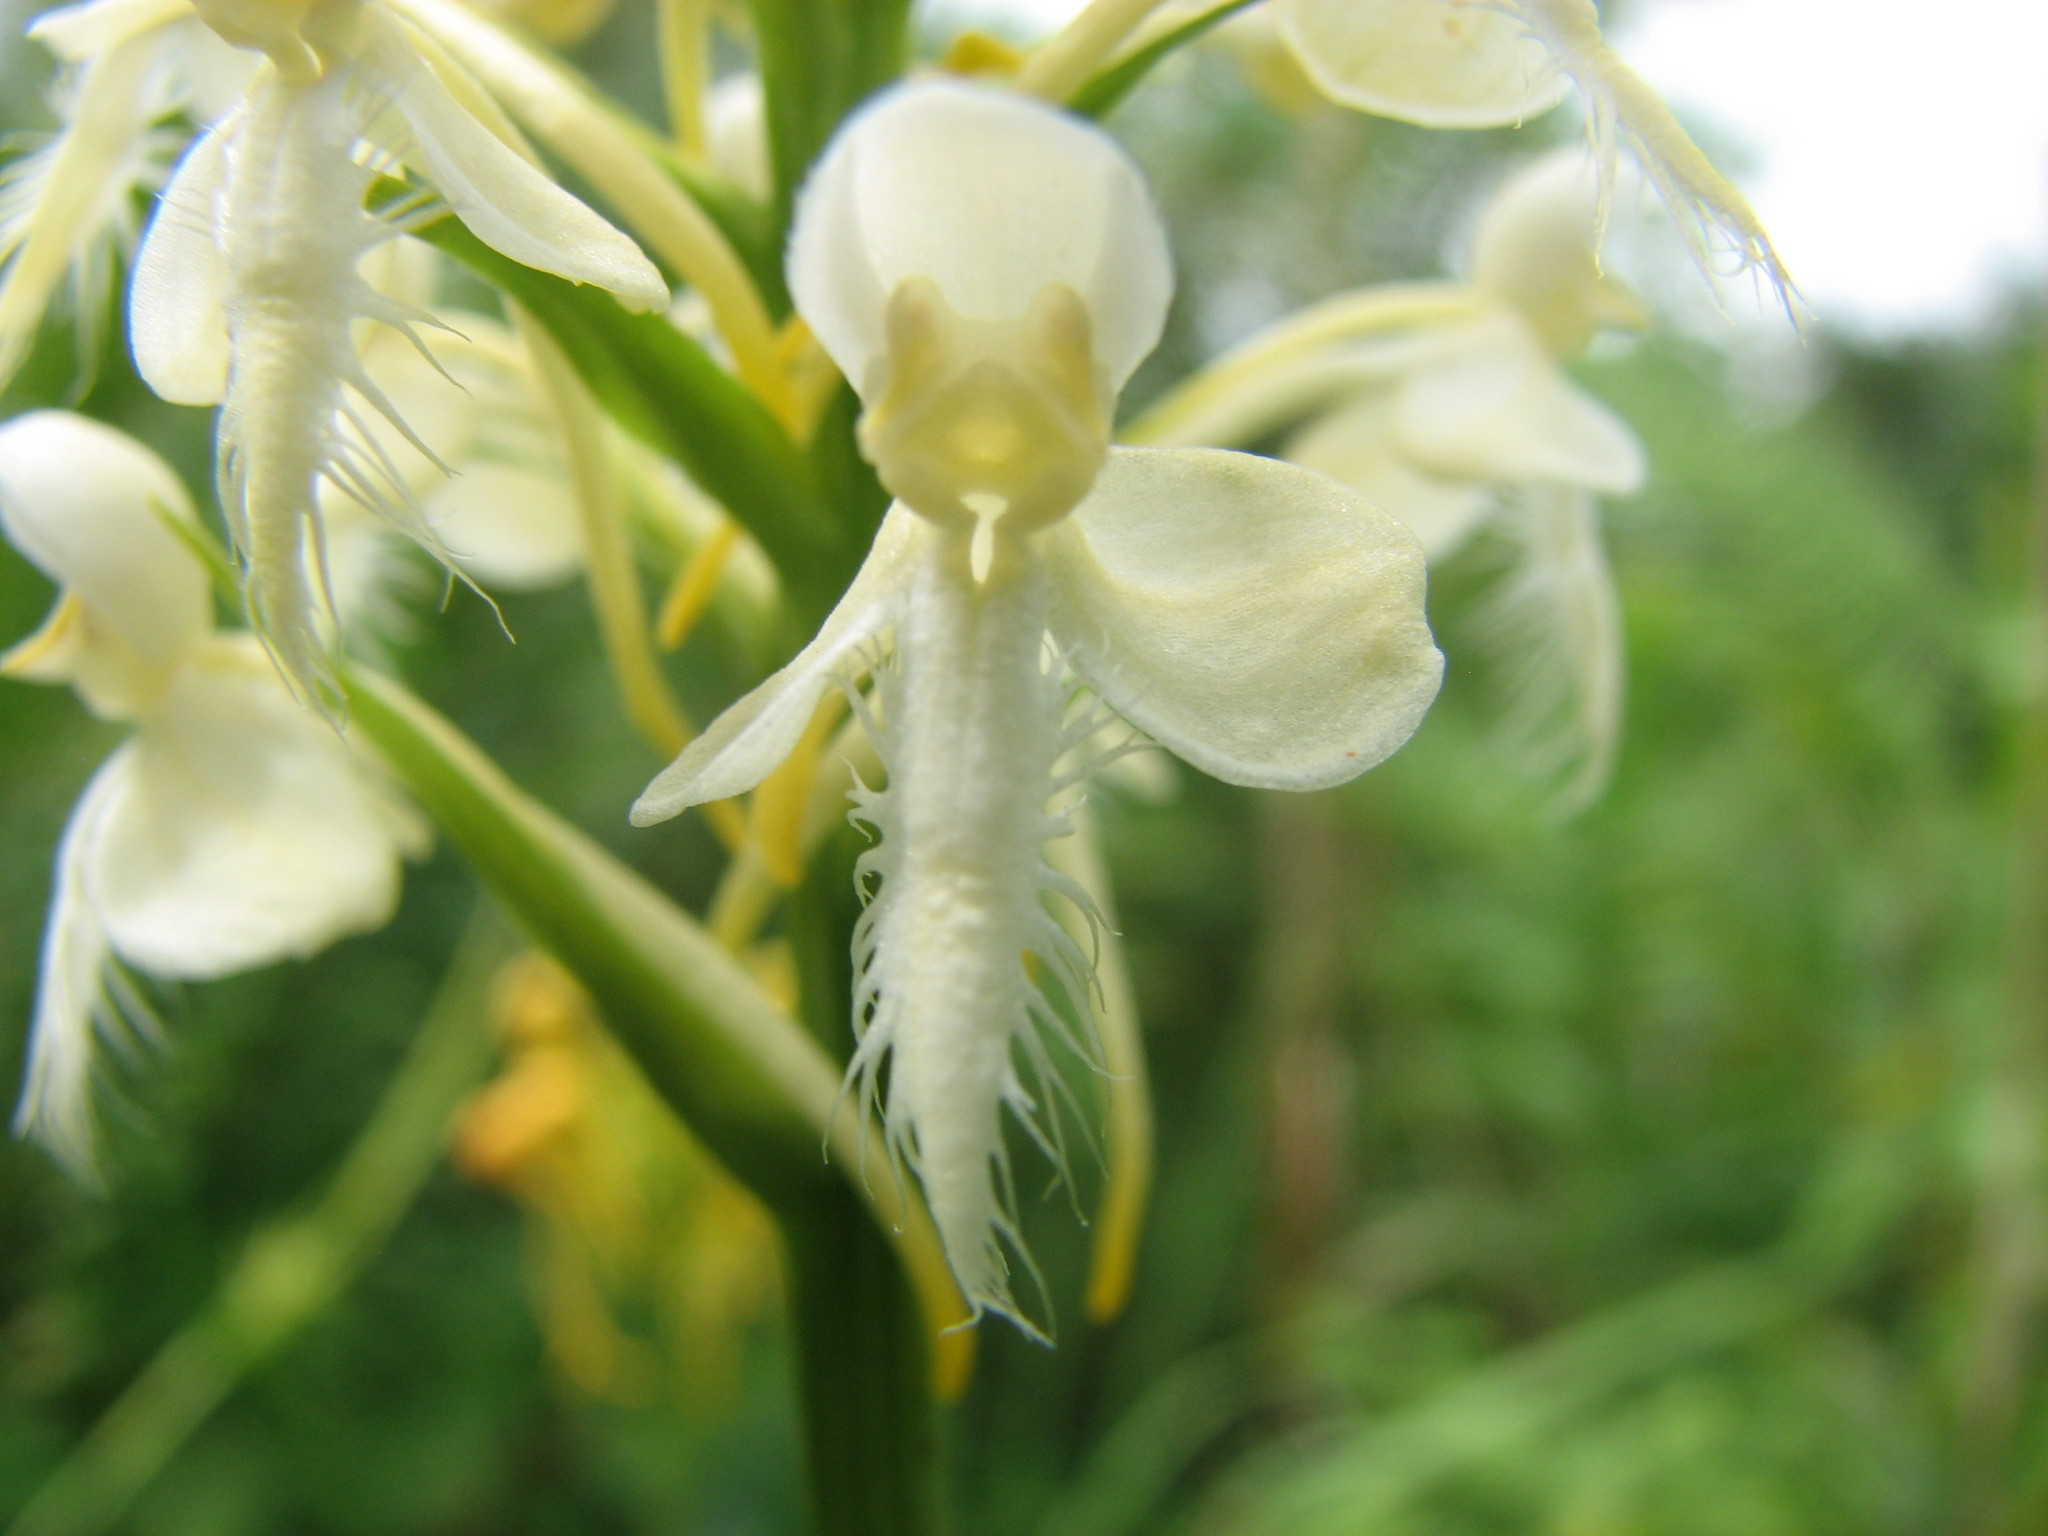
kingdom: Plantae
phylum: Tracheophyta
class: Liliopsida
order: Asparagales
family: Orchidaceae
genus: Platanthera
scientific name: Platanthera blephariglottis
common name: White fringed orchid
